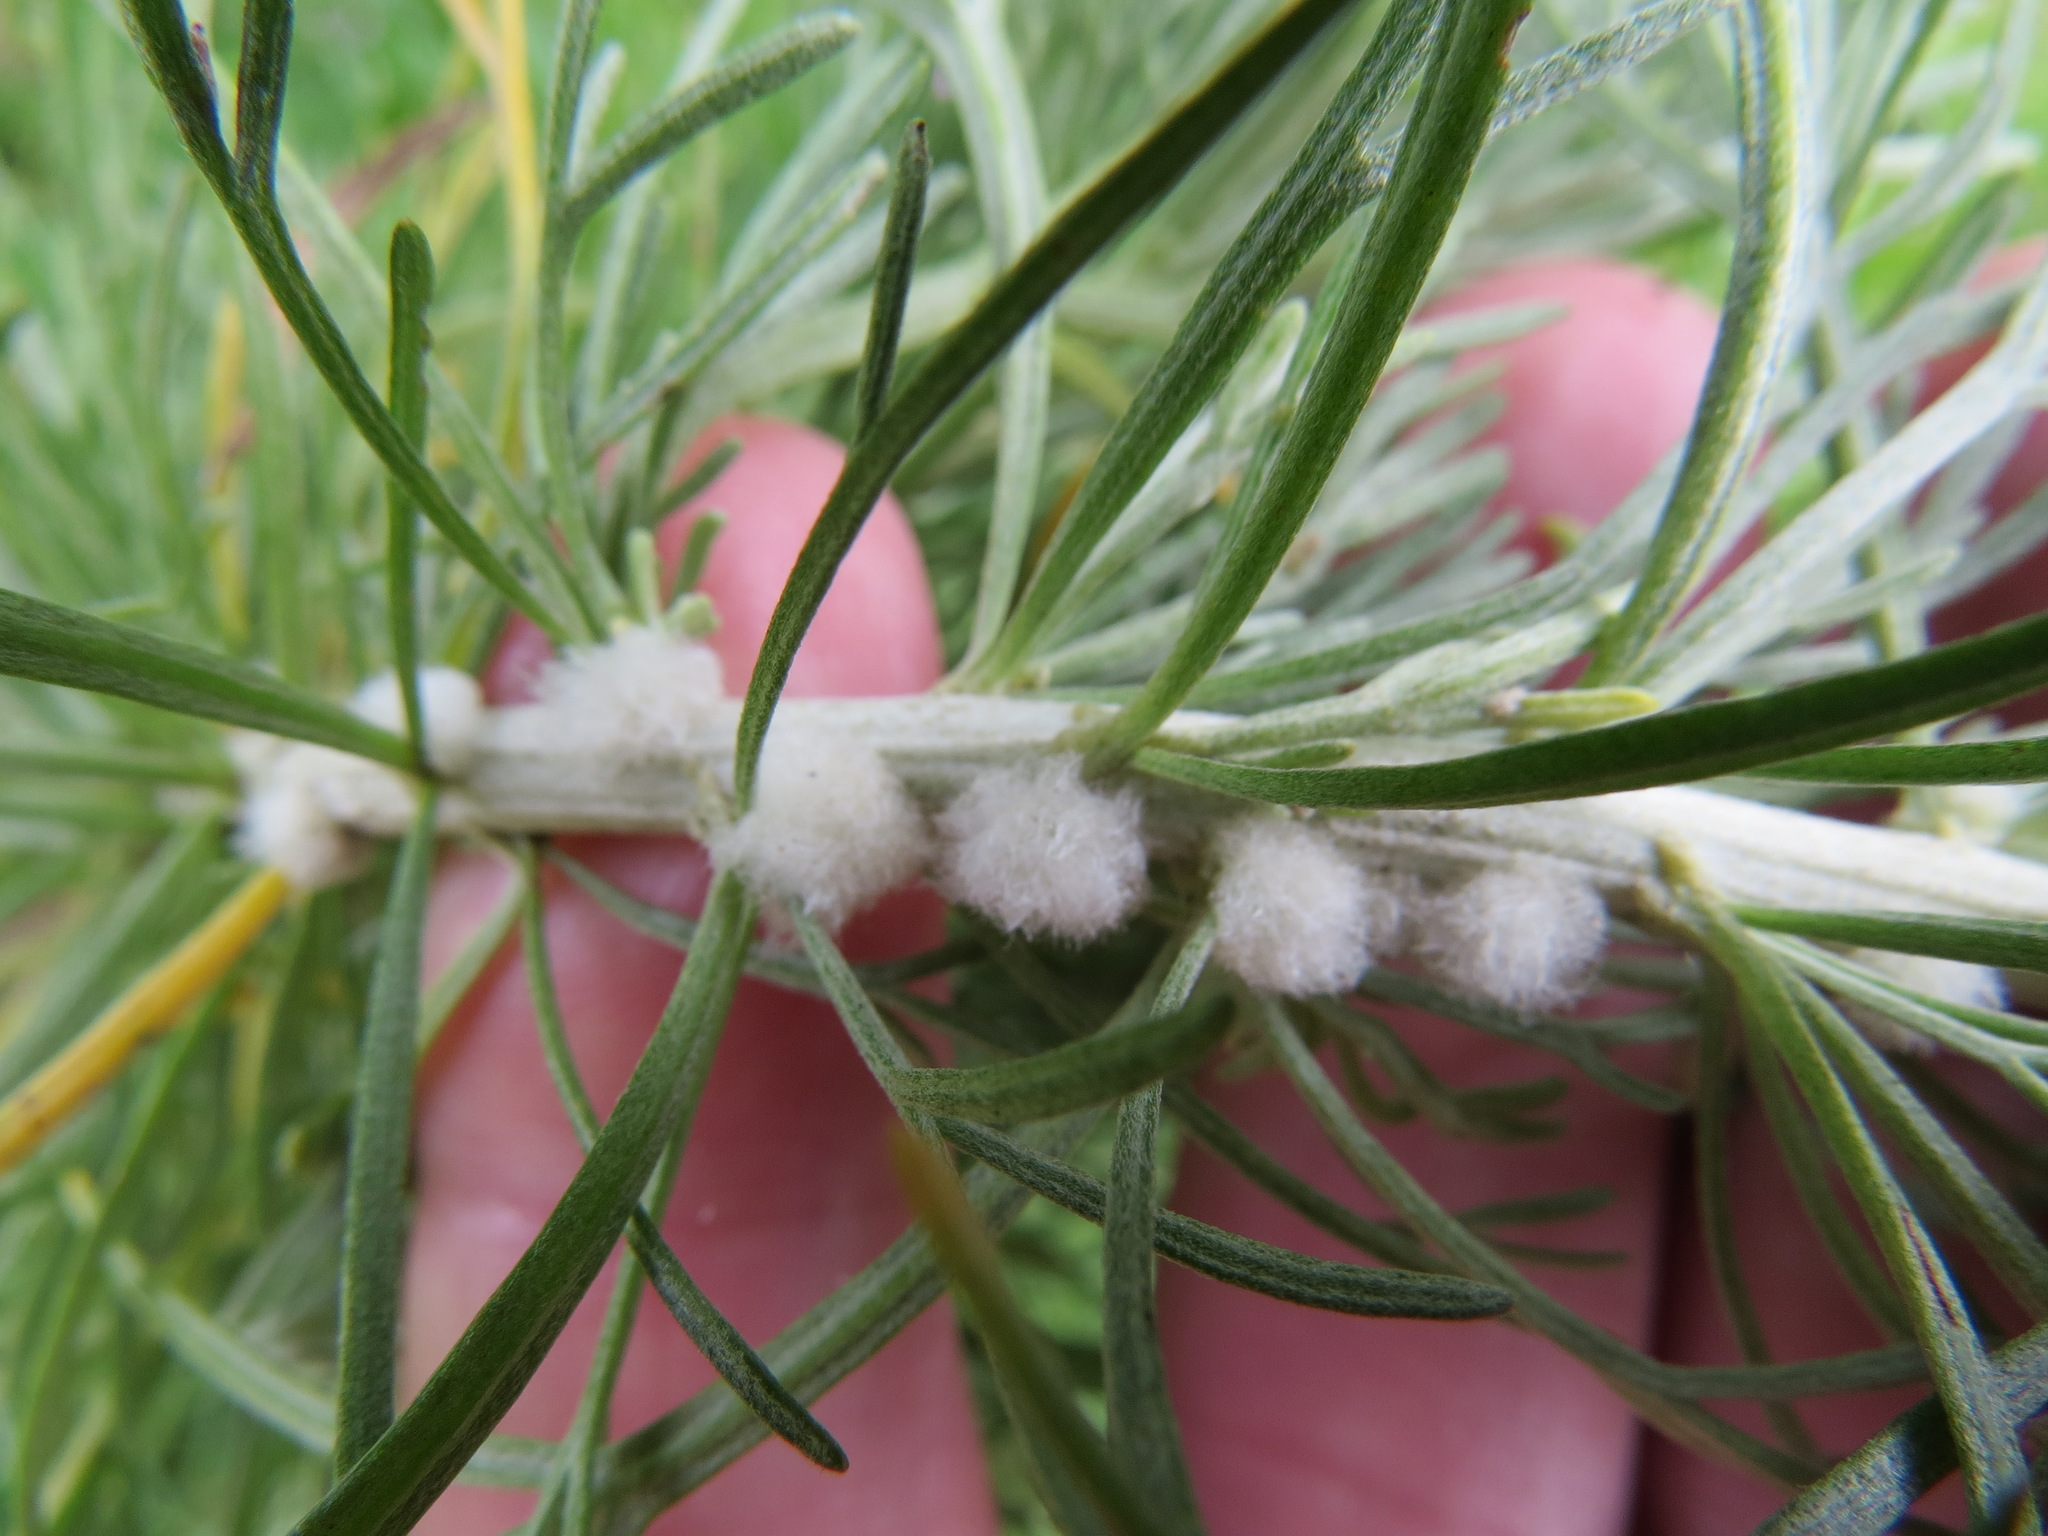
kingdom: Animalia
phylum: Arthropoda
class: Insecta
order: Diptera
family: Cecidomyiidae
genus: Rhopalomyia
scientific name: Rhopalomyia floccosa
